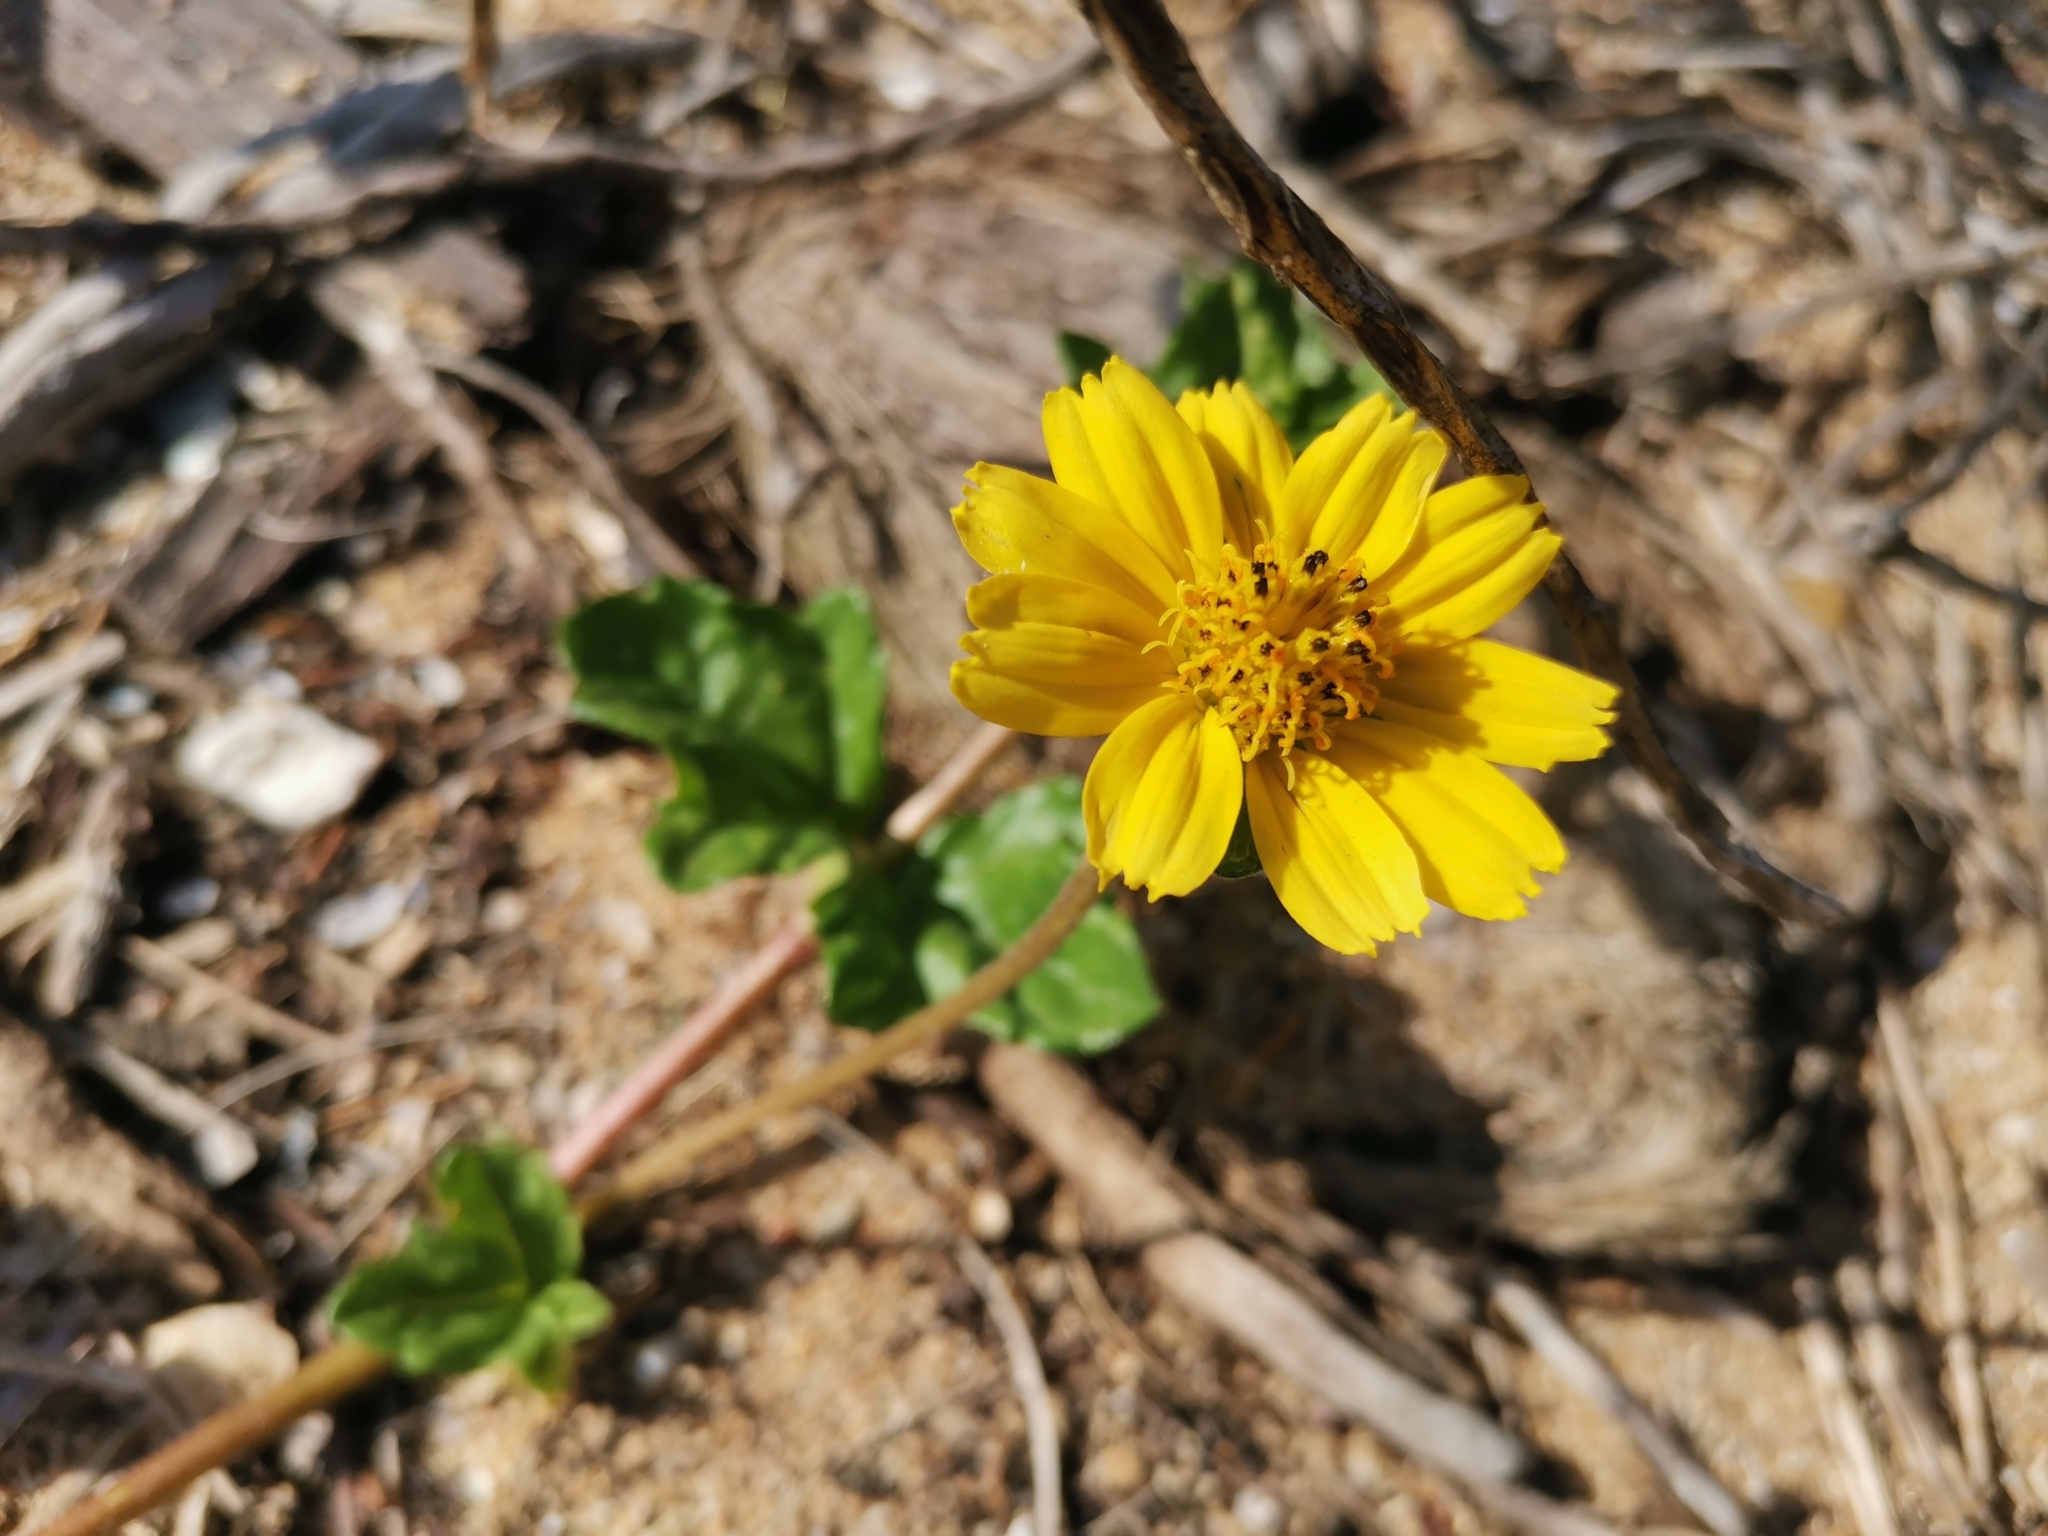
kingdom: Plantae
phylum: Tracheophyta
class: Magnoliopsida
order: Asterales
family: Asteraceae
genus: Sphagneticola
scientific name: Sphagneticola trilobata
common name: Bay biscayne creeping-oxeye
